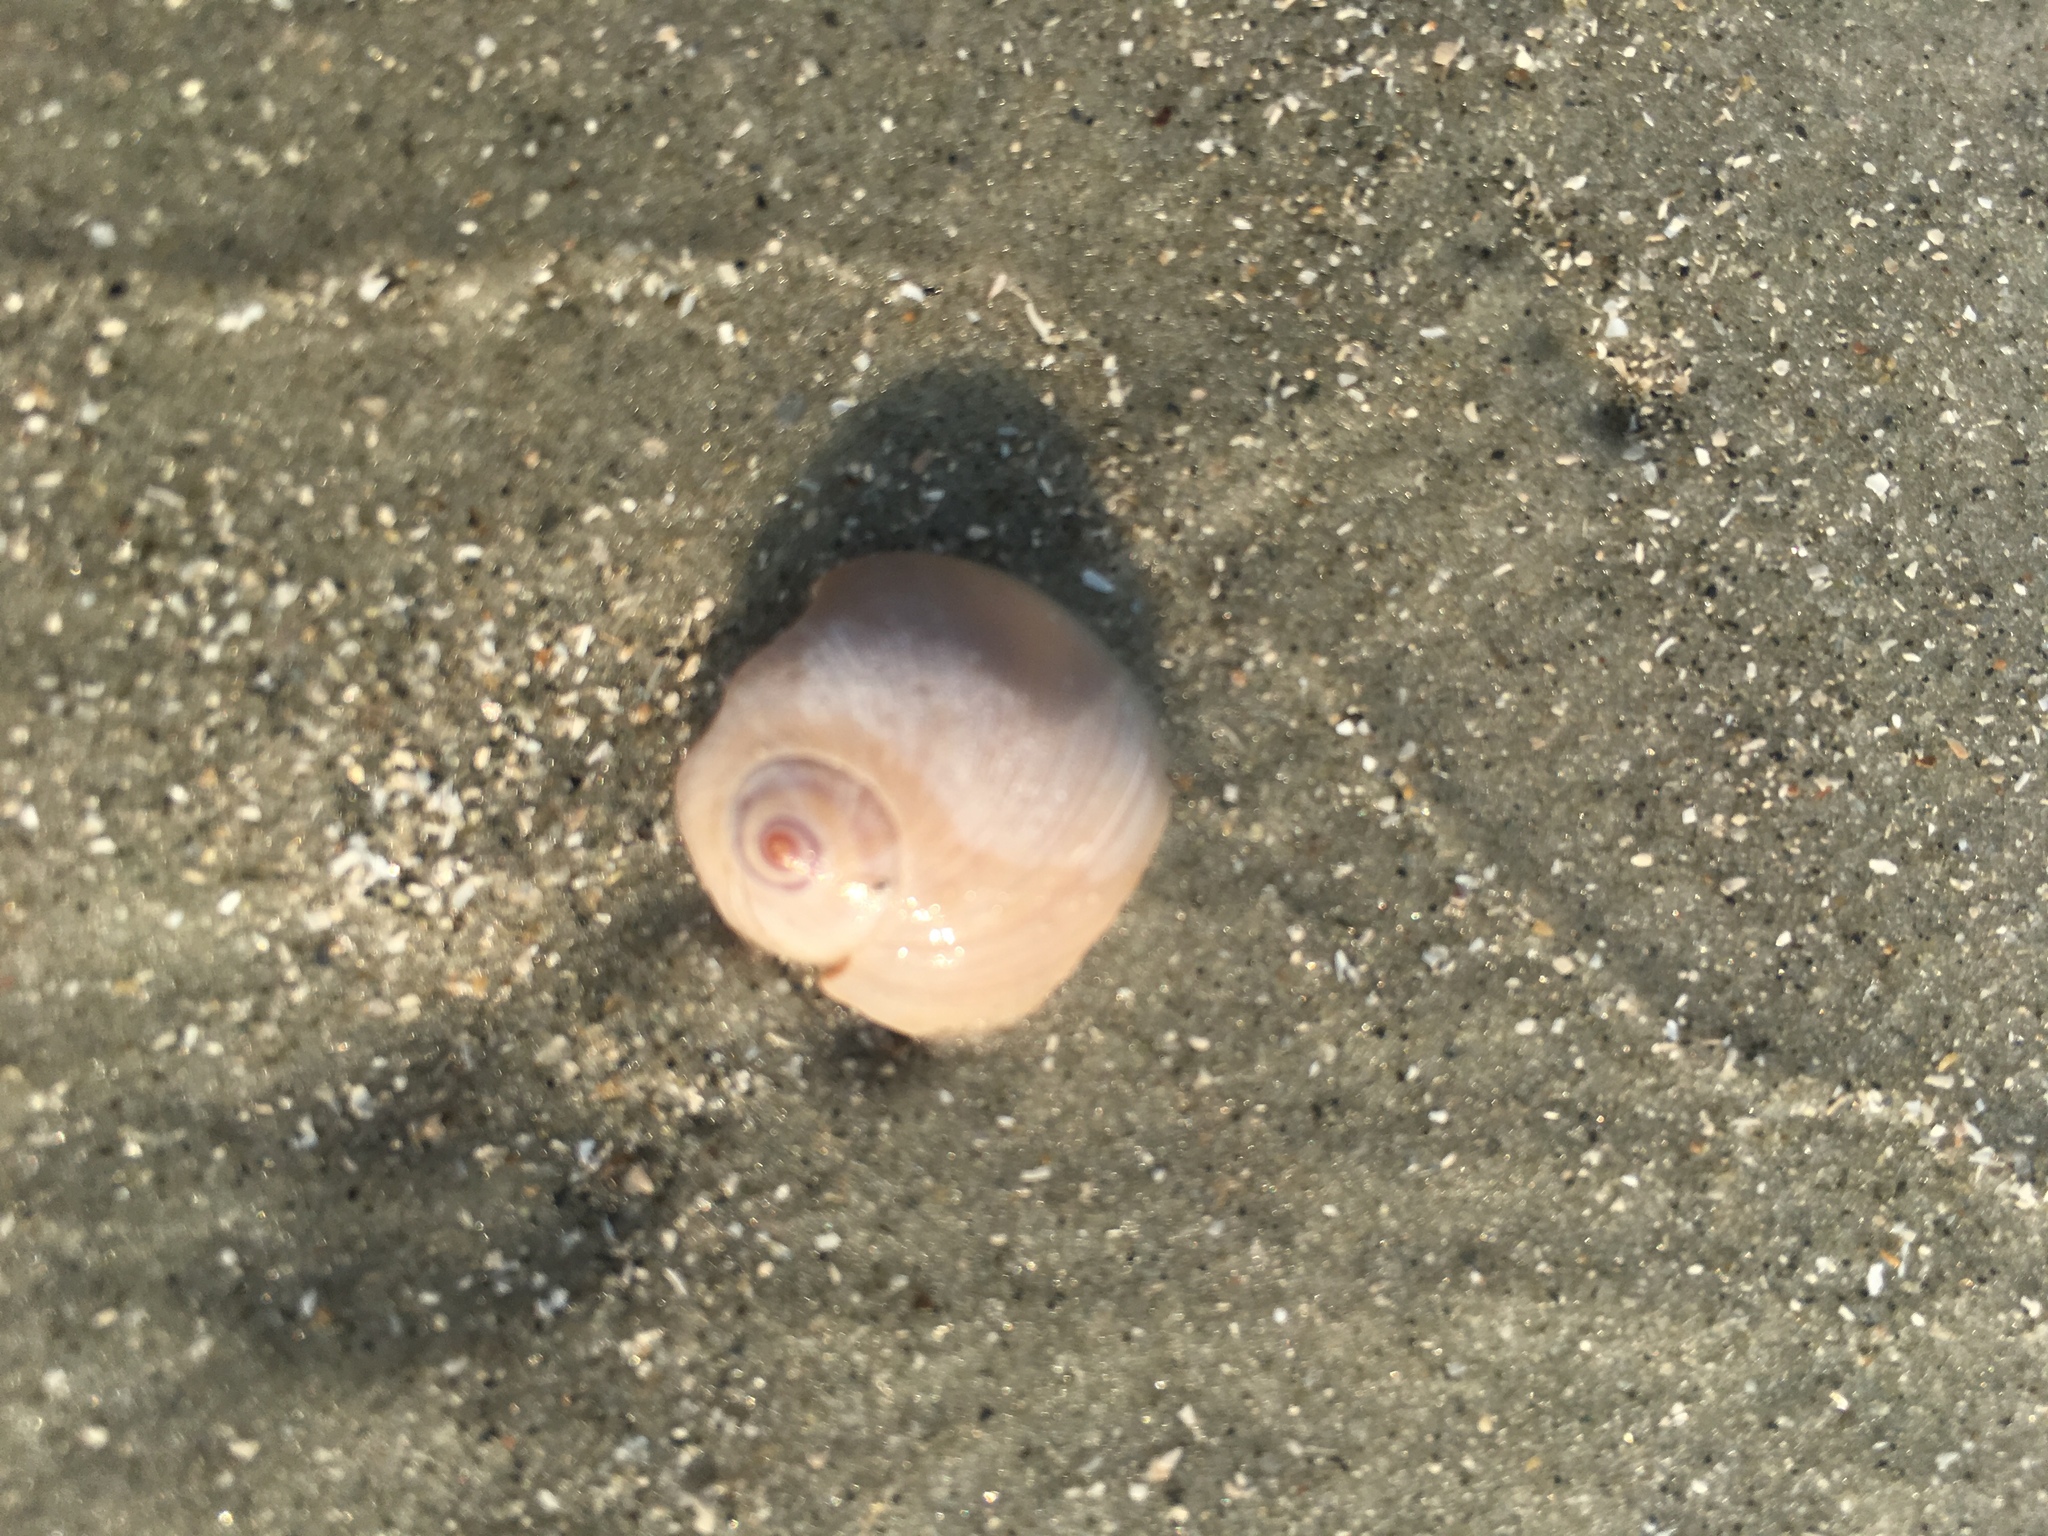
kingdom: Animalia
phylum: Mollusca
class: Gastropoda
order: Littorinimorpha
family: Naticidae
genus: Neverita
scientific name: Neverita duplicata
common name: Lobed moonsnail
